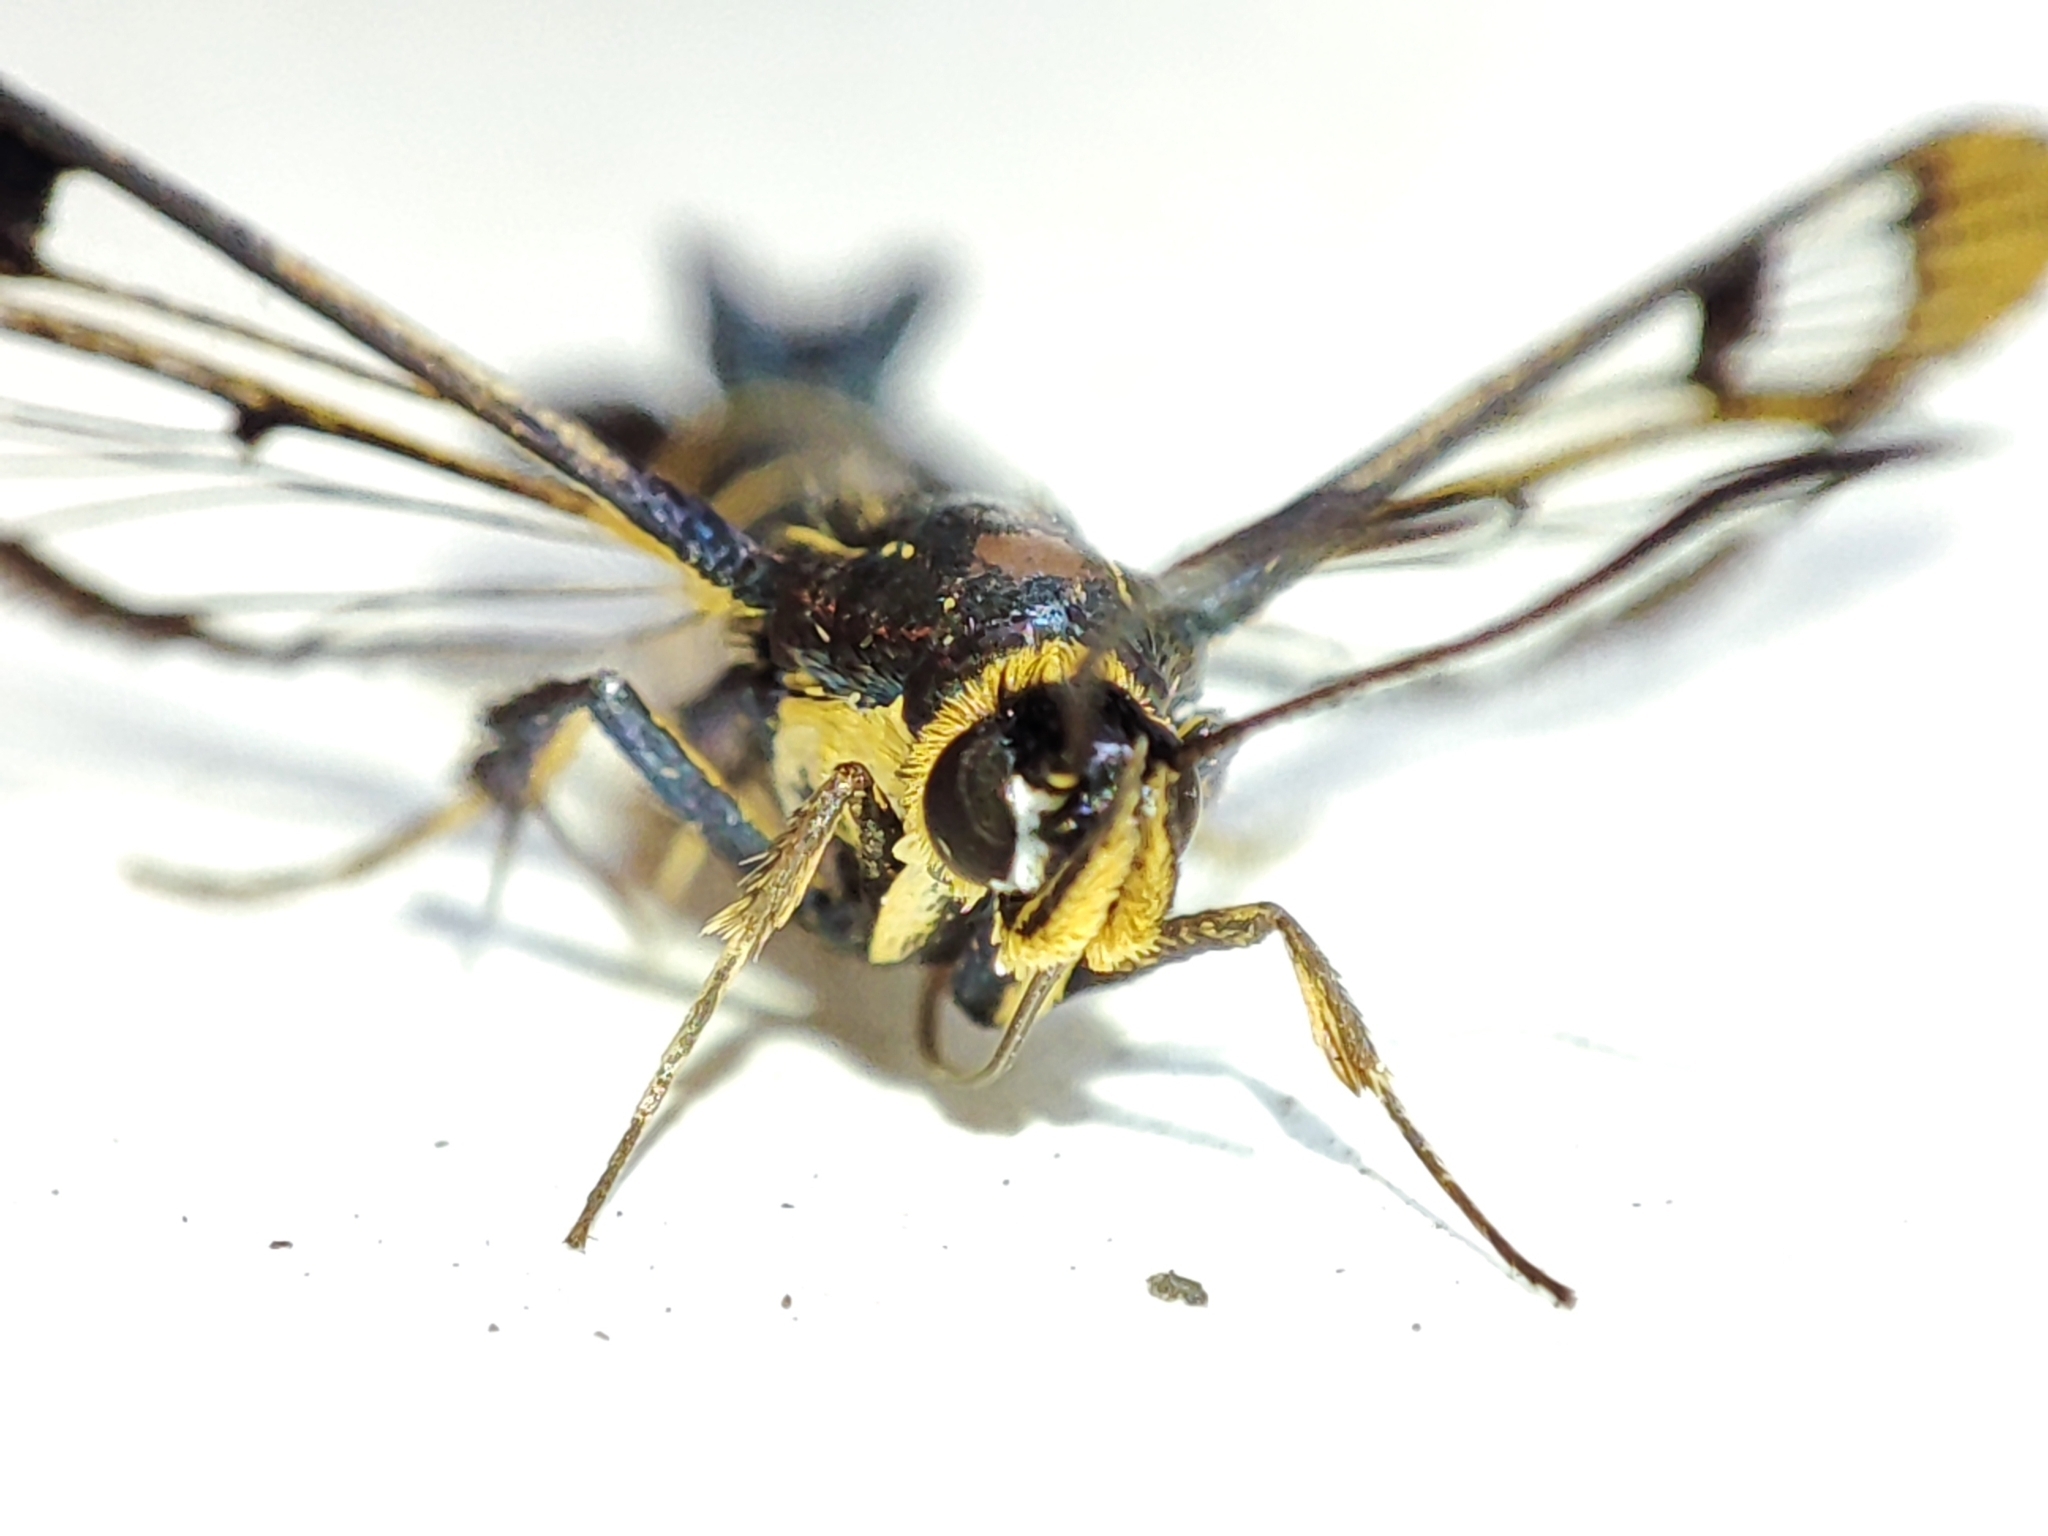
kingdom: Animalia
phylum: Arthropoda
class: Insecta
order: Lepidoptera
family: Sesiidae
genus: Synanthedon
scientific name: Synanthedon conopiformis
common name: Dale's oak clearwing
